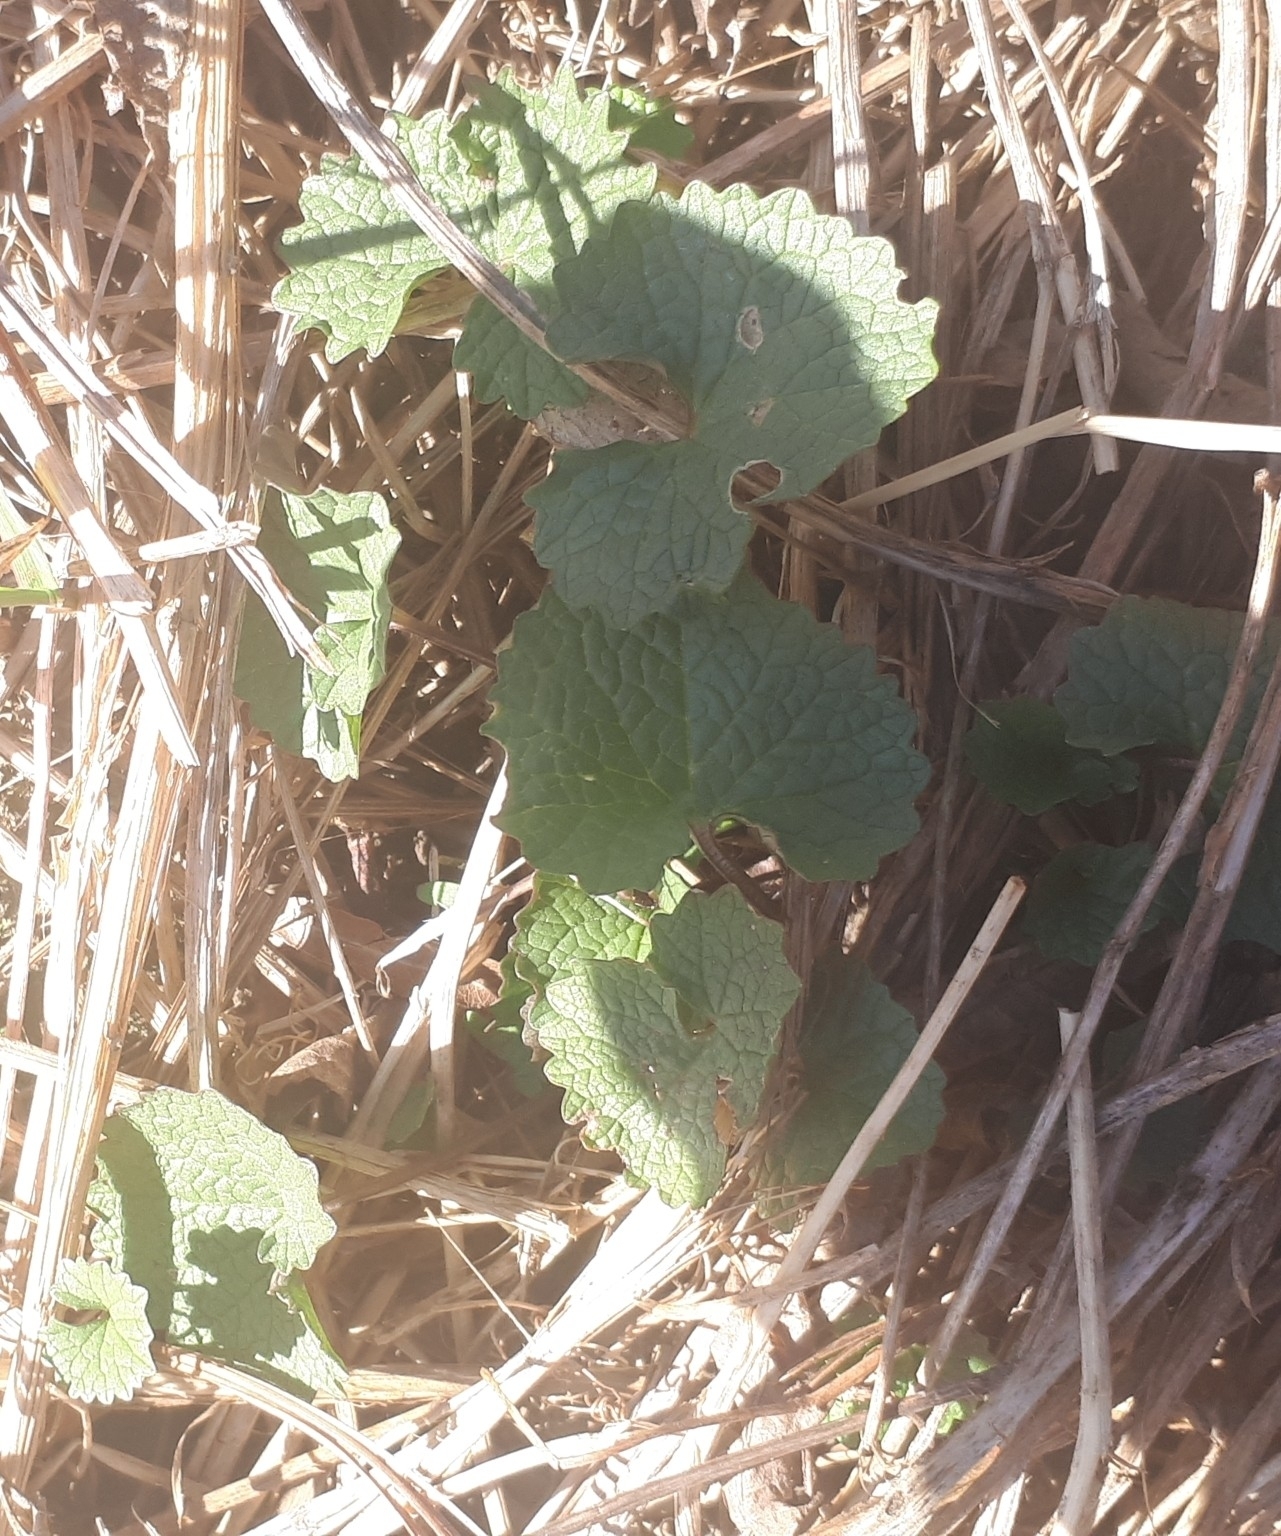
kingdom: Plantae
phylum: Tracheophyta
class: Magnoliopsida
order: Brassicales
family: Brassicaceae
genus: Alliaria
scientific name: Alliaria petiolata
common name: Garlic mustard
